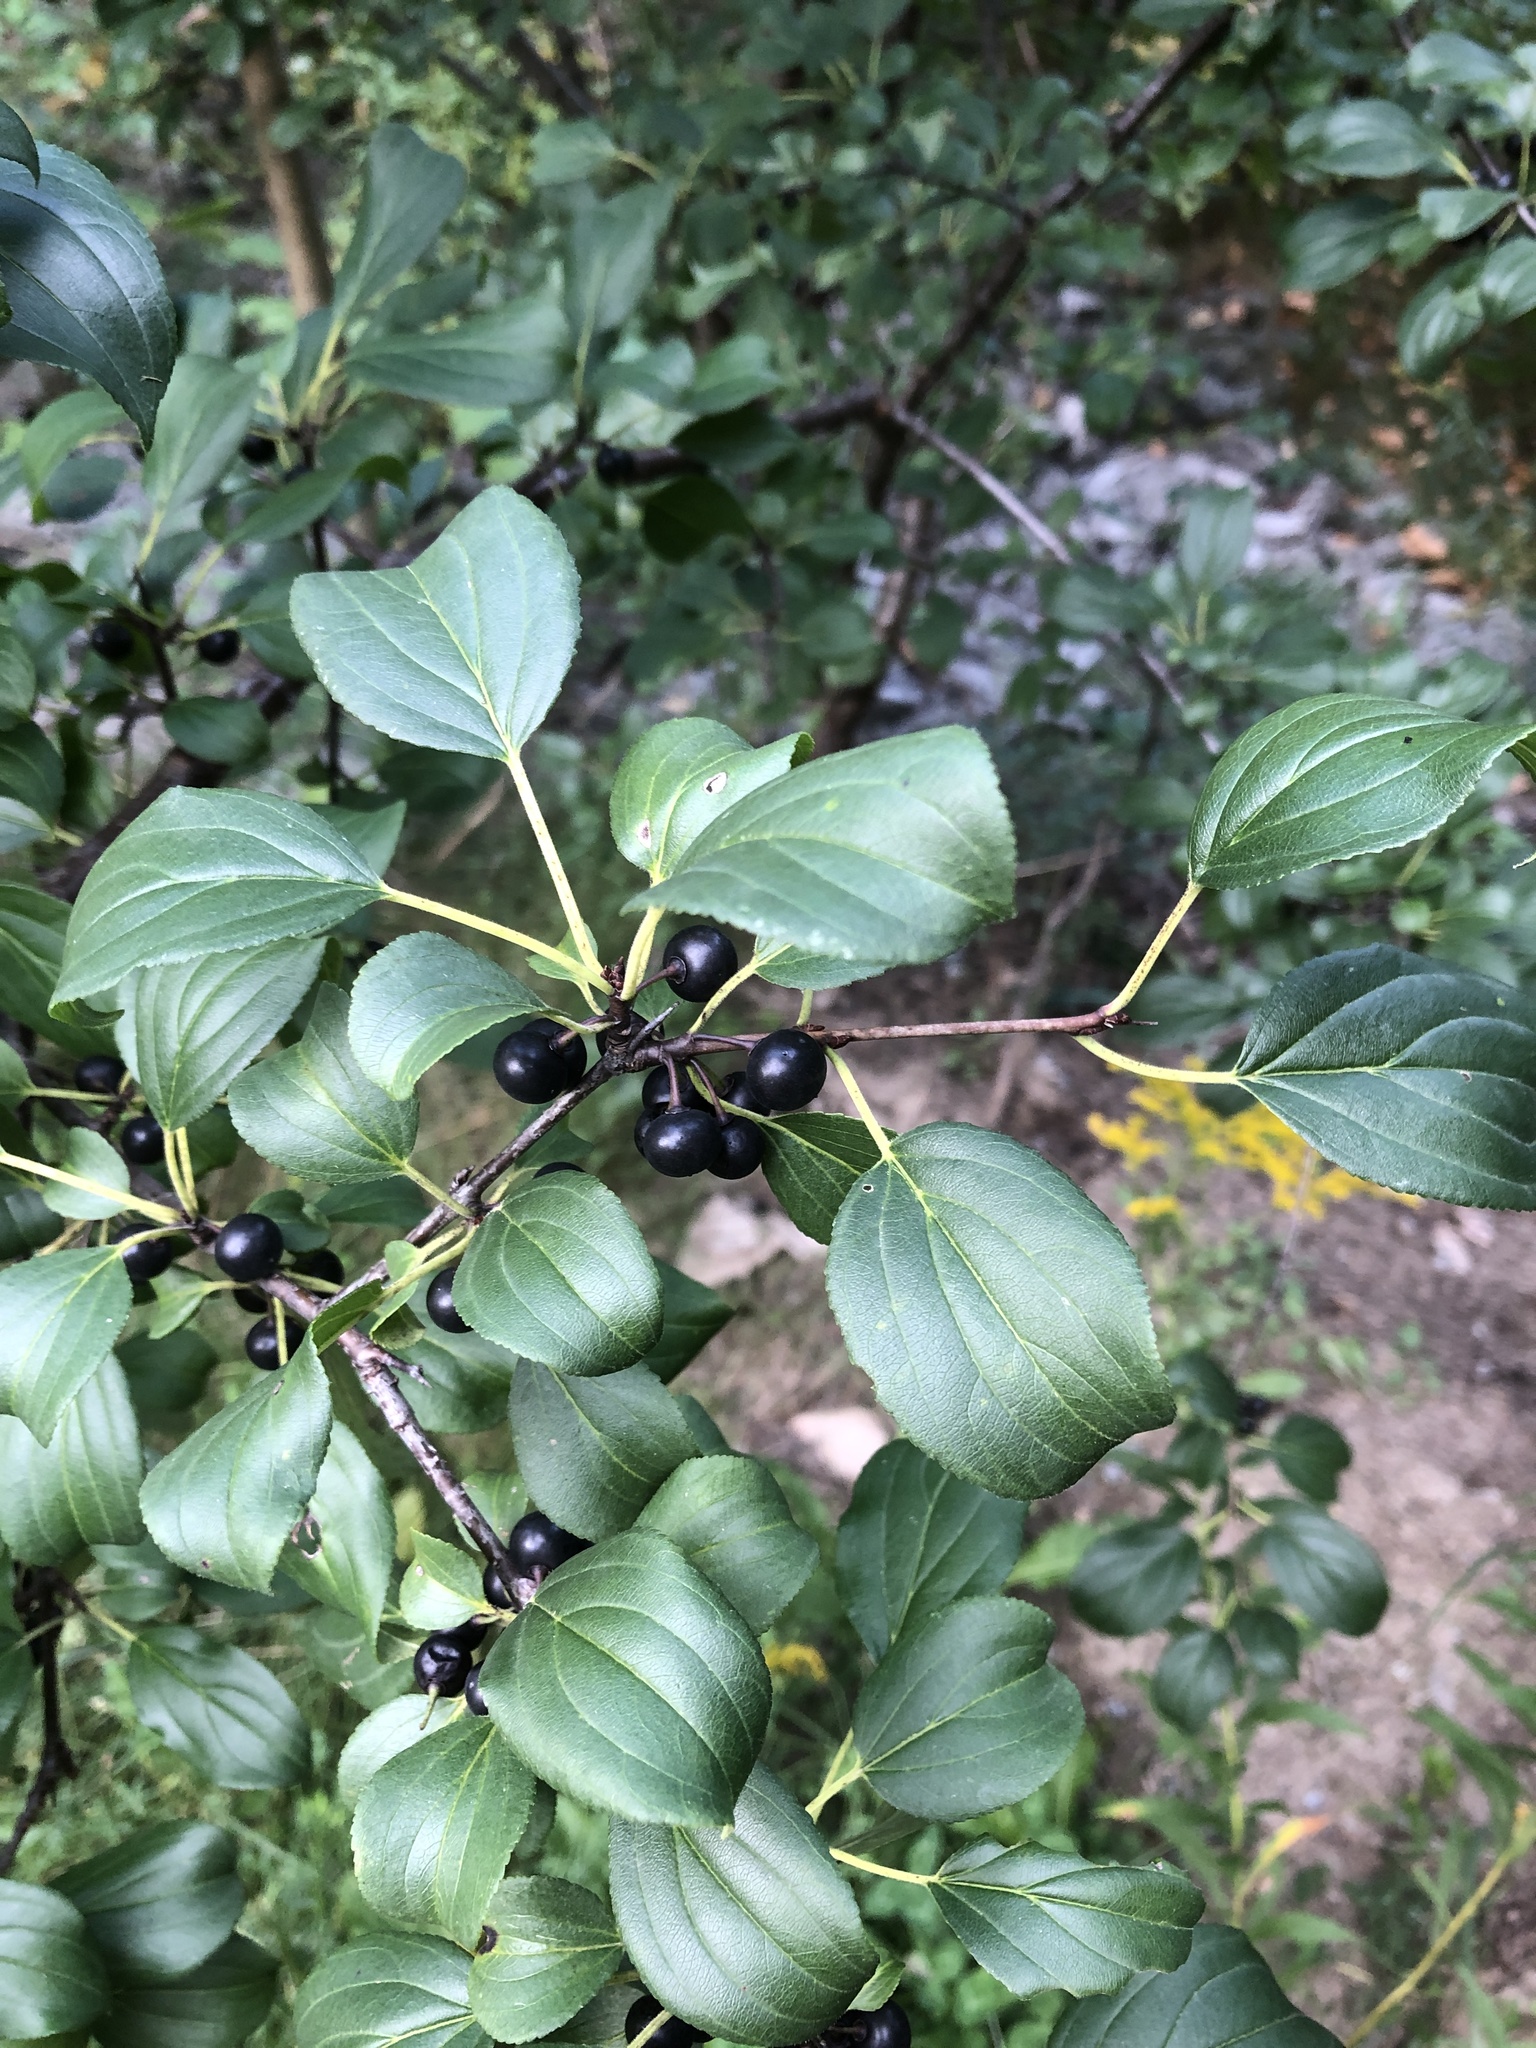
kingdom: Plantae
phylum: Tracheophyta
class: Magnoliopsida
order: Rosales
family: Rhamnaceae
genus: Rhamnus
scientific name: Rhamnus cathartica
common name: Common buckthorn
